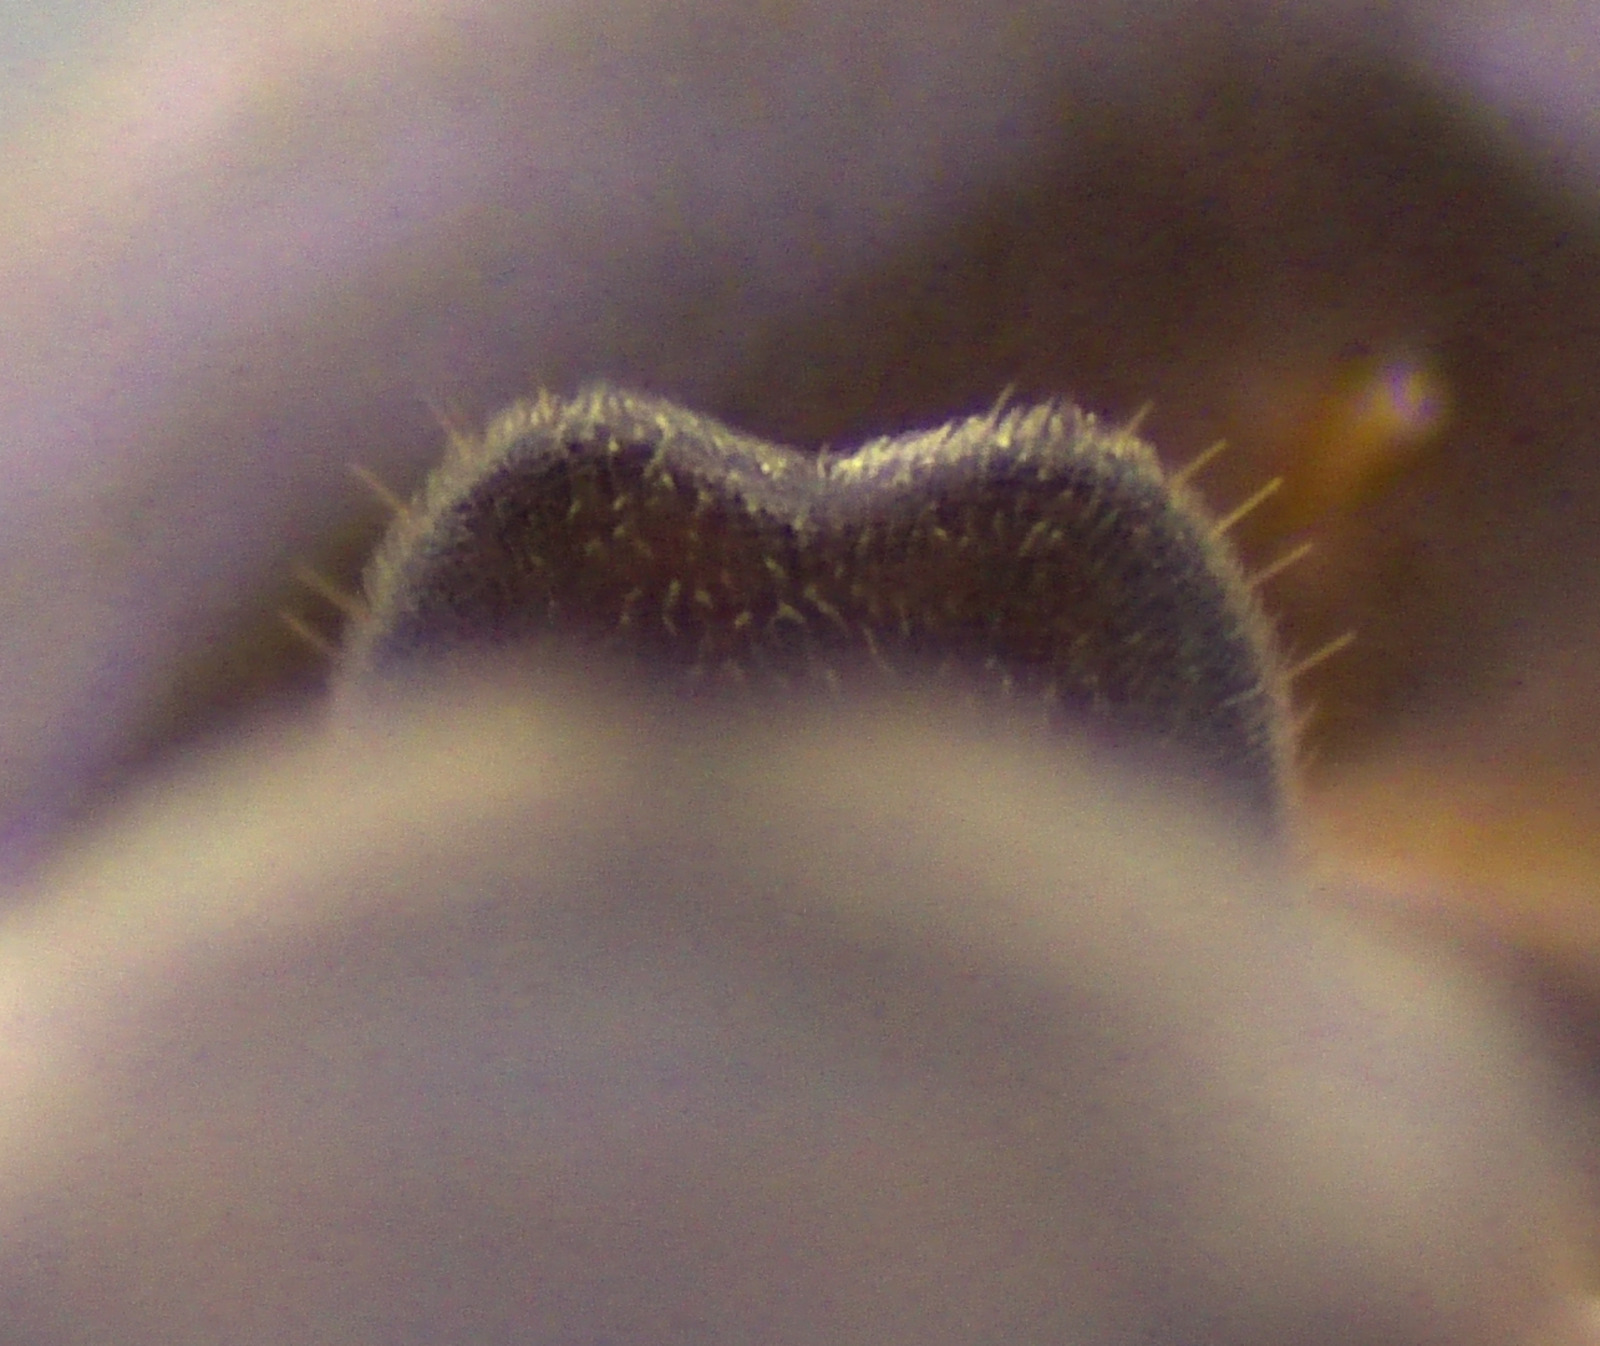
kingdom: Animalia
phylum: Arthropoda
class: Insecta
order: Hymenoptera
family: Formicidae
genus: Lasius
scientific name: Lasius aphidicola
